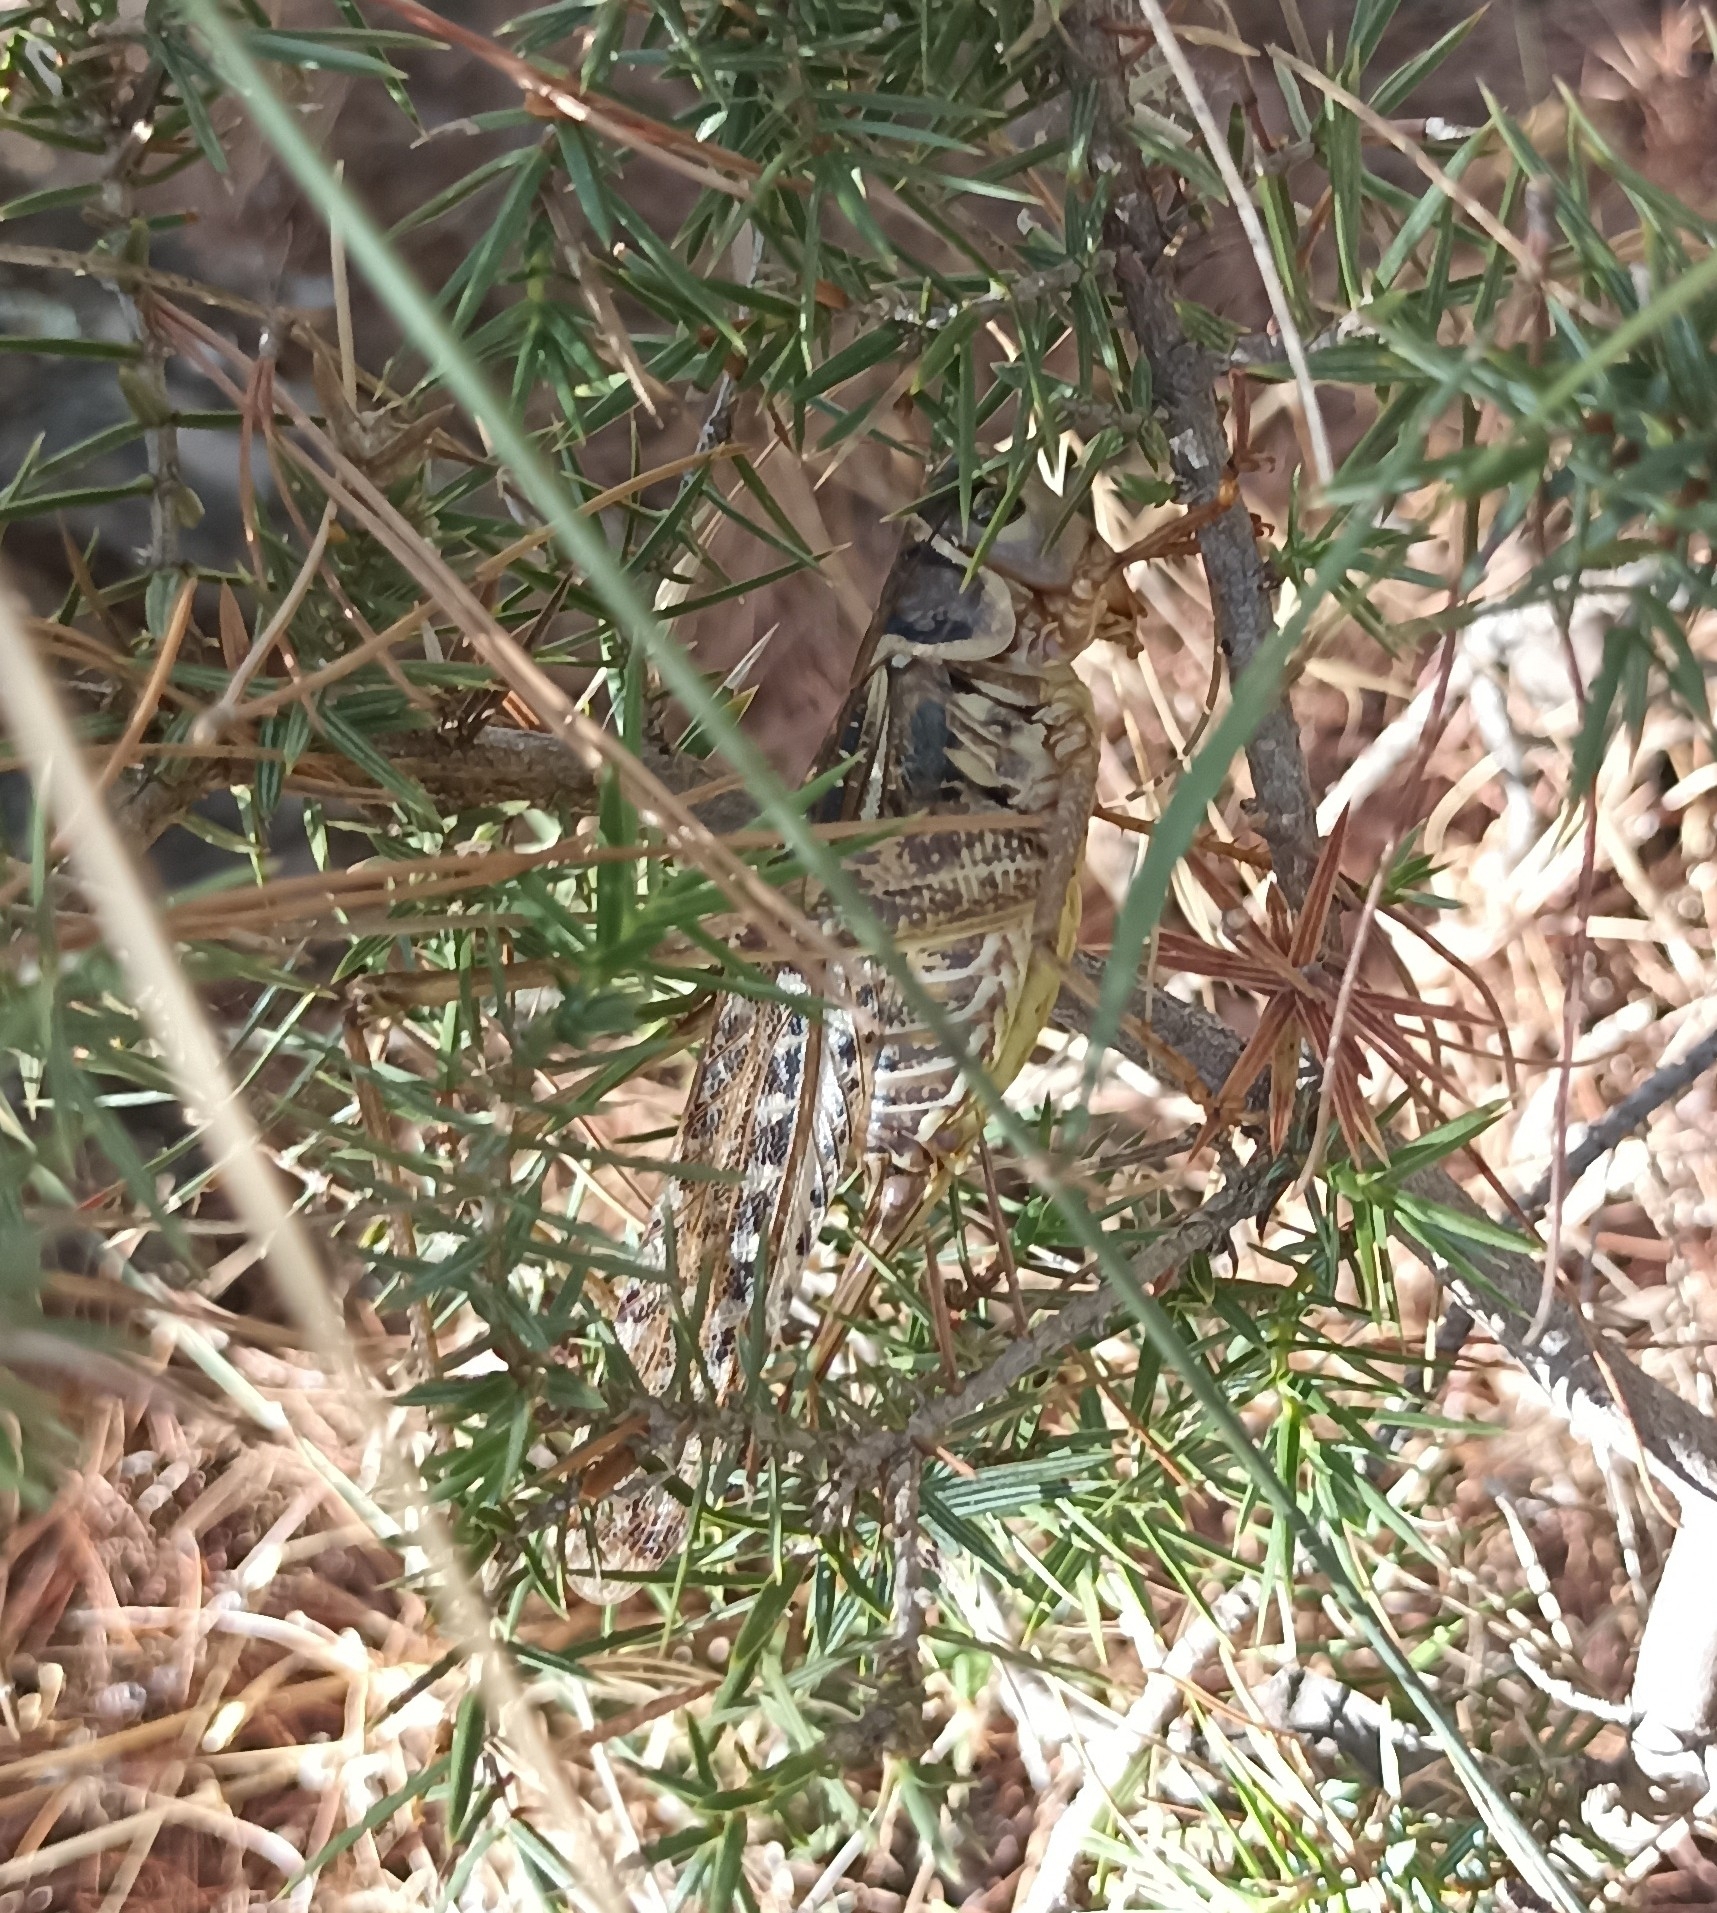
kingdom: Animalia
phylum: Arthropoda
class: Insecta
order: Orthoptera
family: Tettigoniidae
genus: Decticus
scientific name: Decticus albifrons
